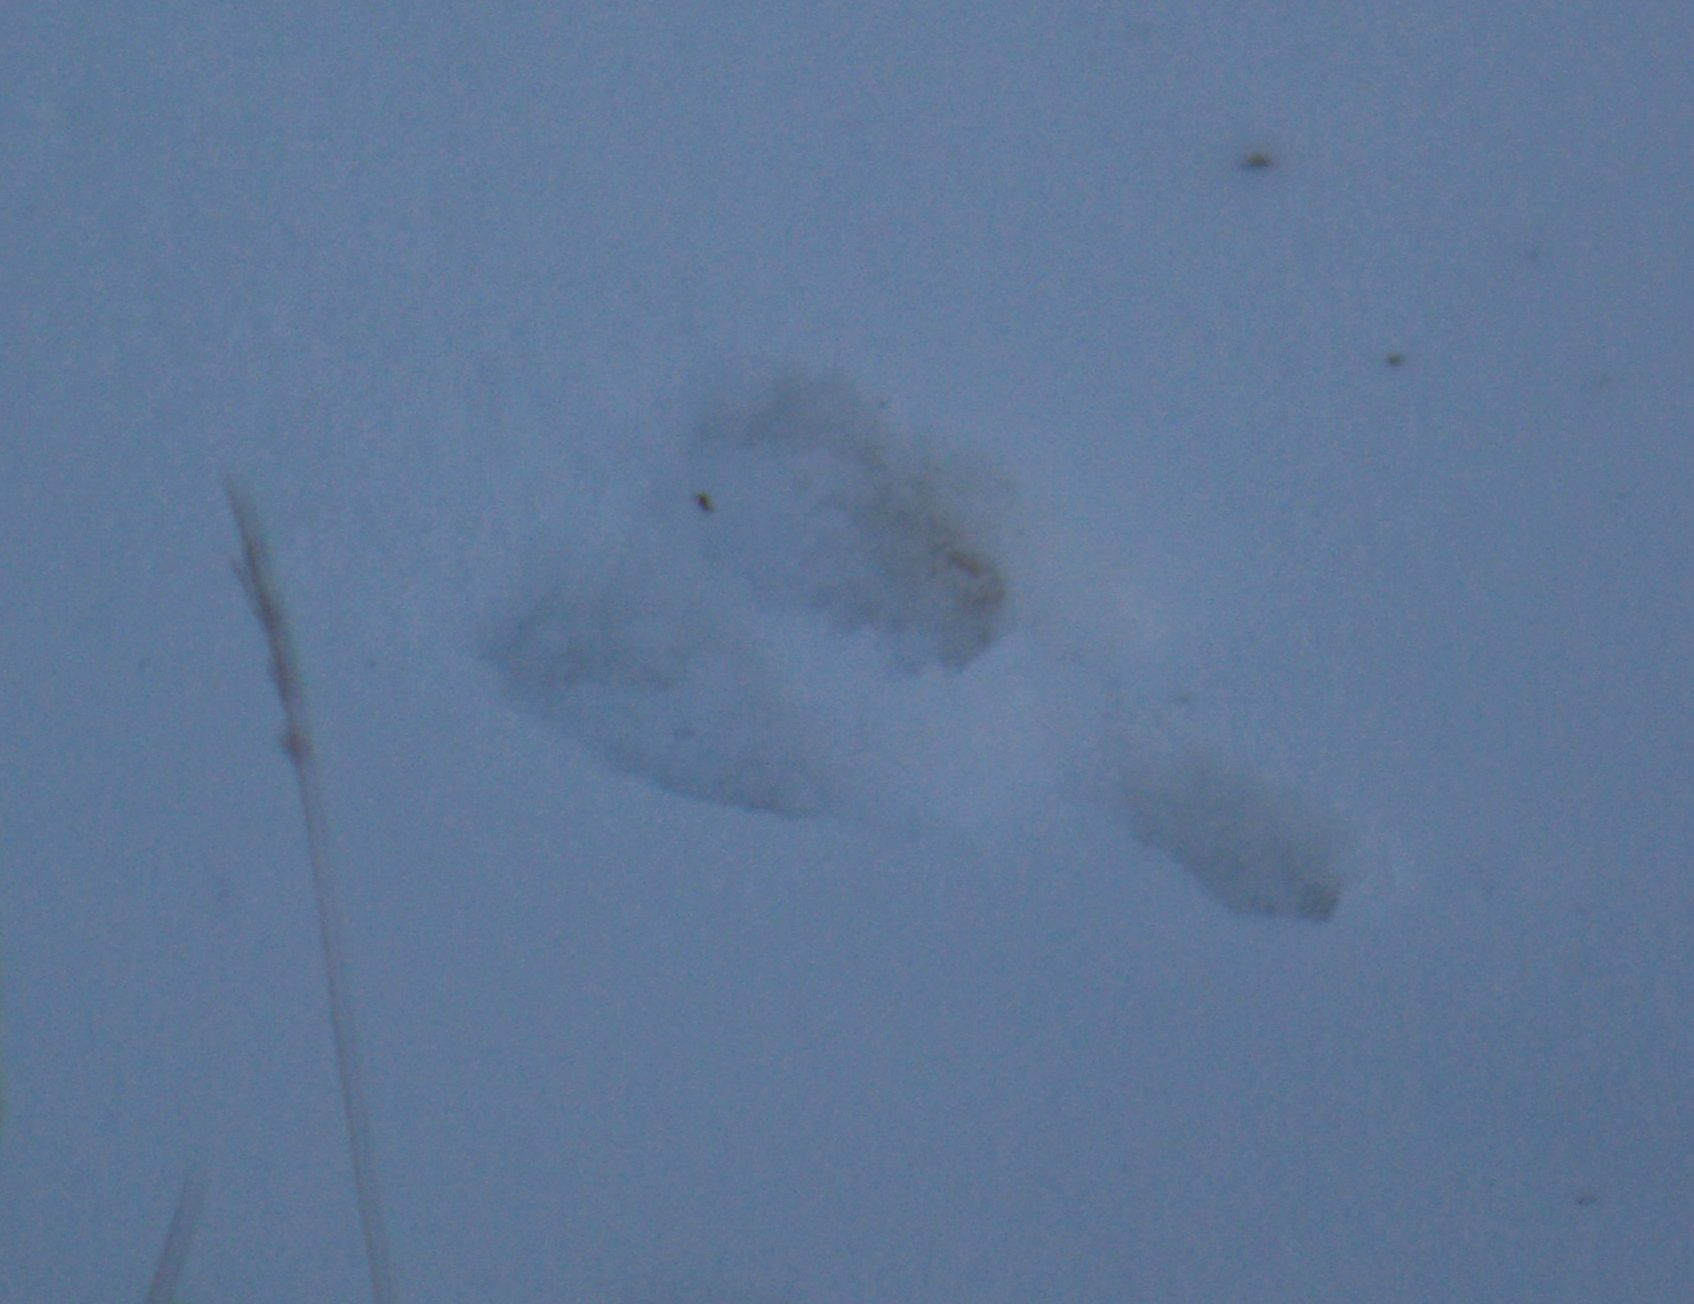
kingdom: Animalia
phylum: Chordata
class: Mammalia
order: Lagomorpha
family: Leporidae
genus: Sylvilagus
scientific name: Sylvilagus floridanus
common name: Eastern cottontail
